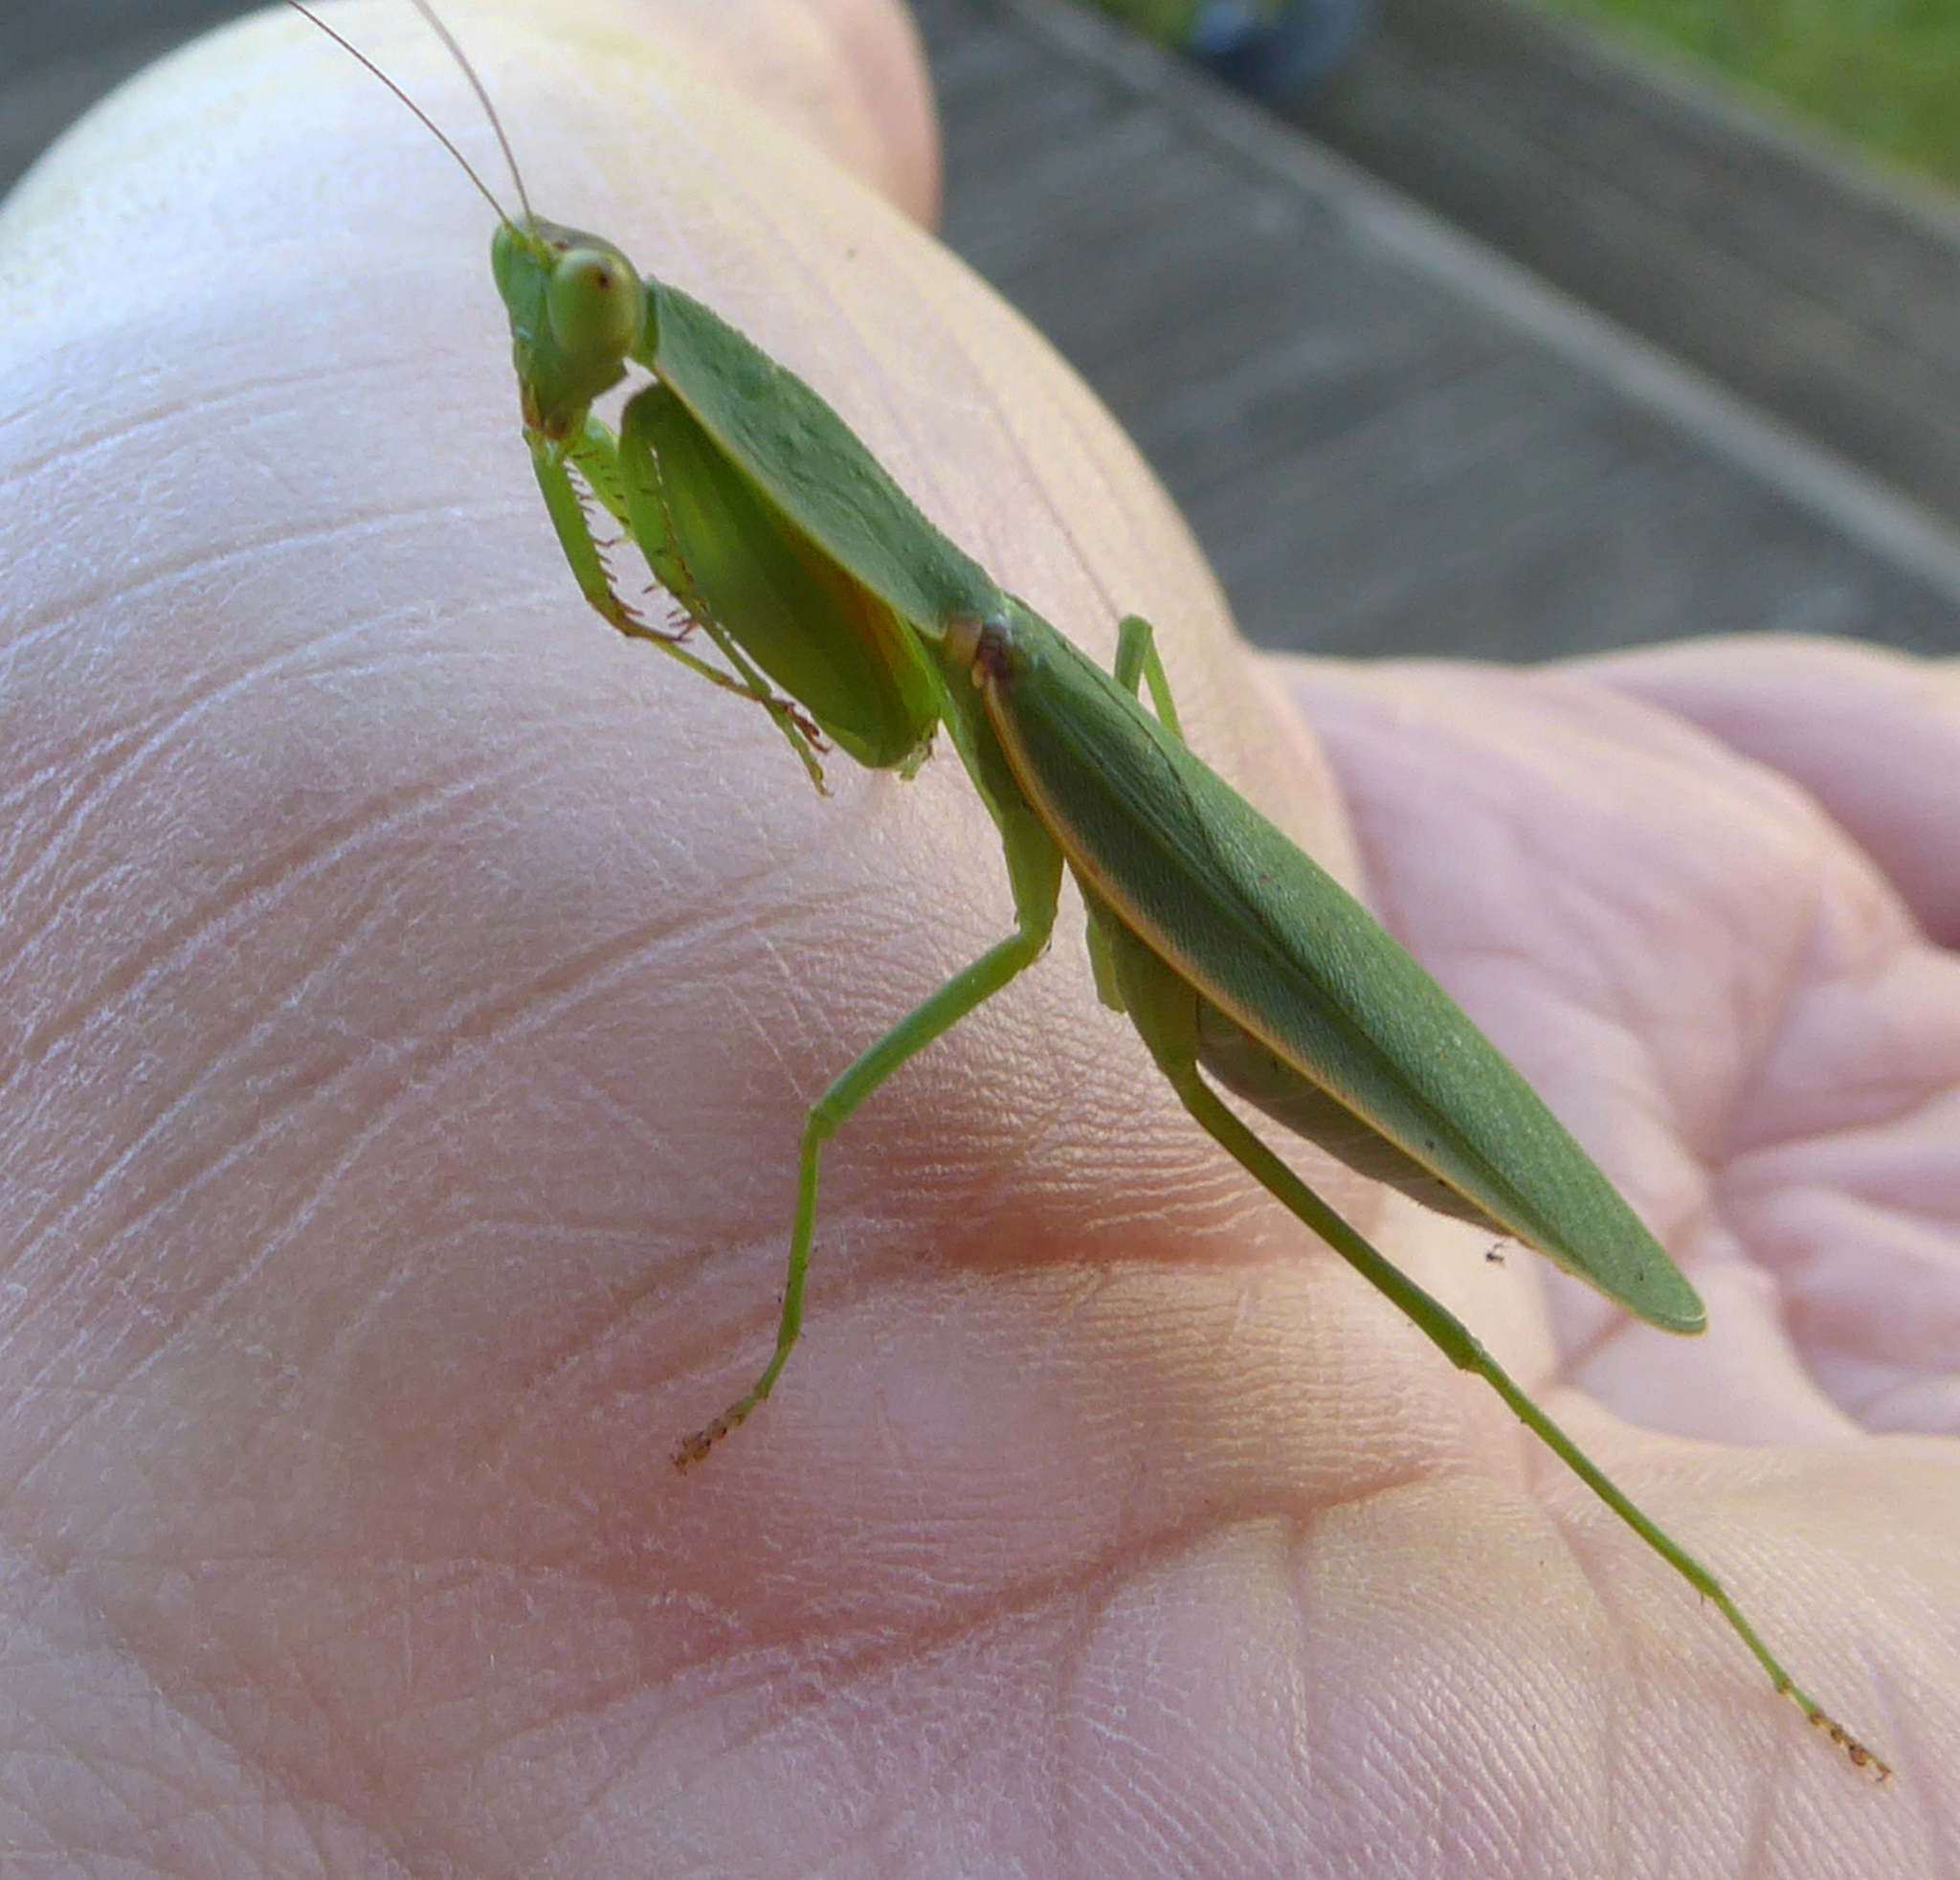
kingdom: Animalia
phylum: Arthropoda
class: Insecta
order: Mantodea
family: Mantidae
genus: Orthodera
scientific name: Orthodera novaezealandiae
